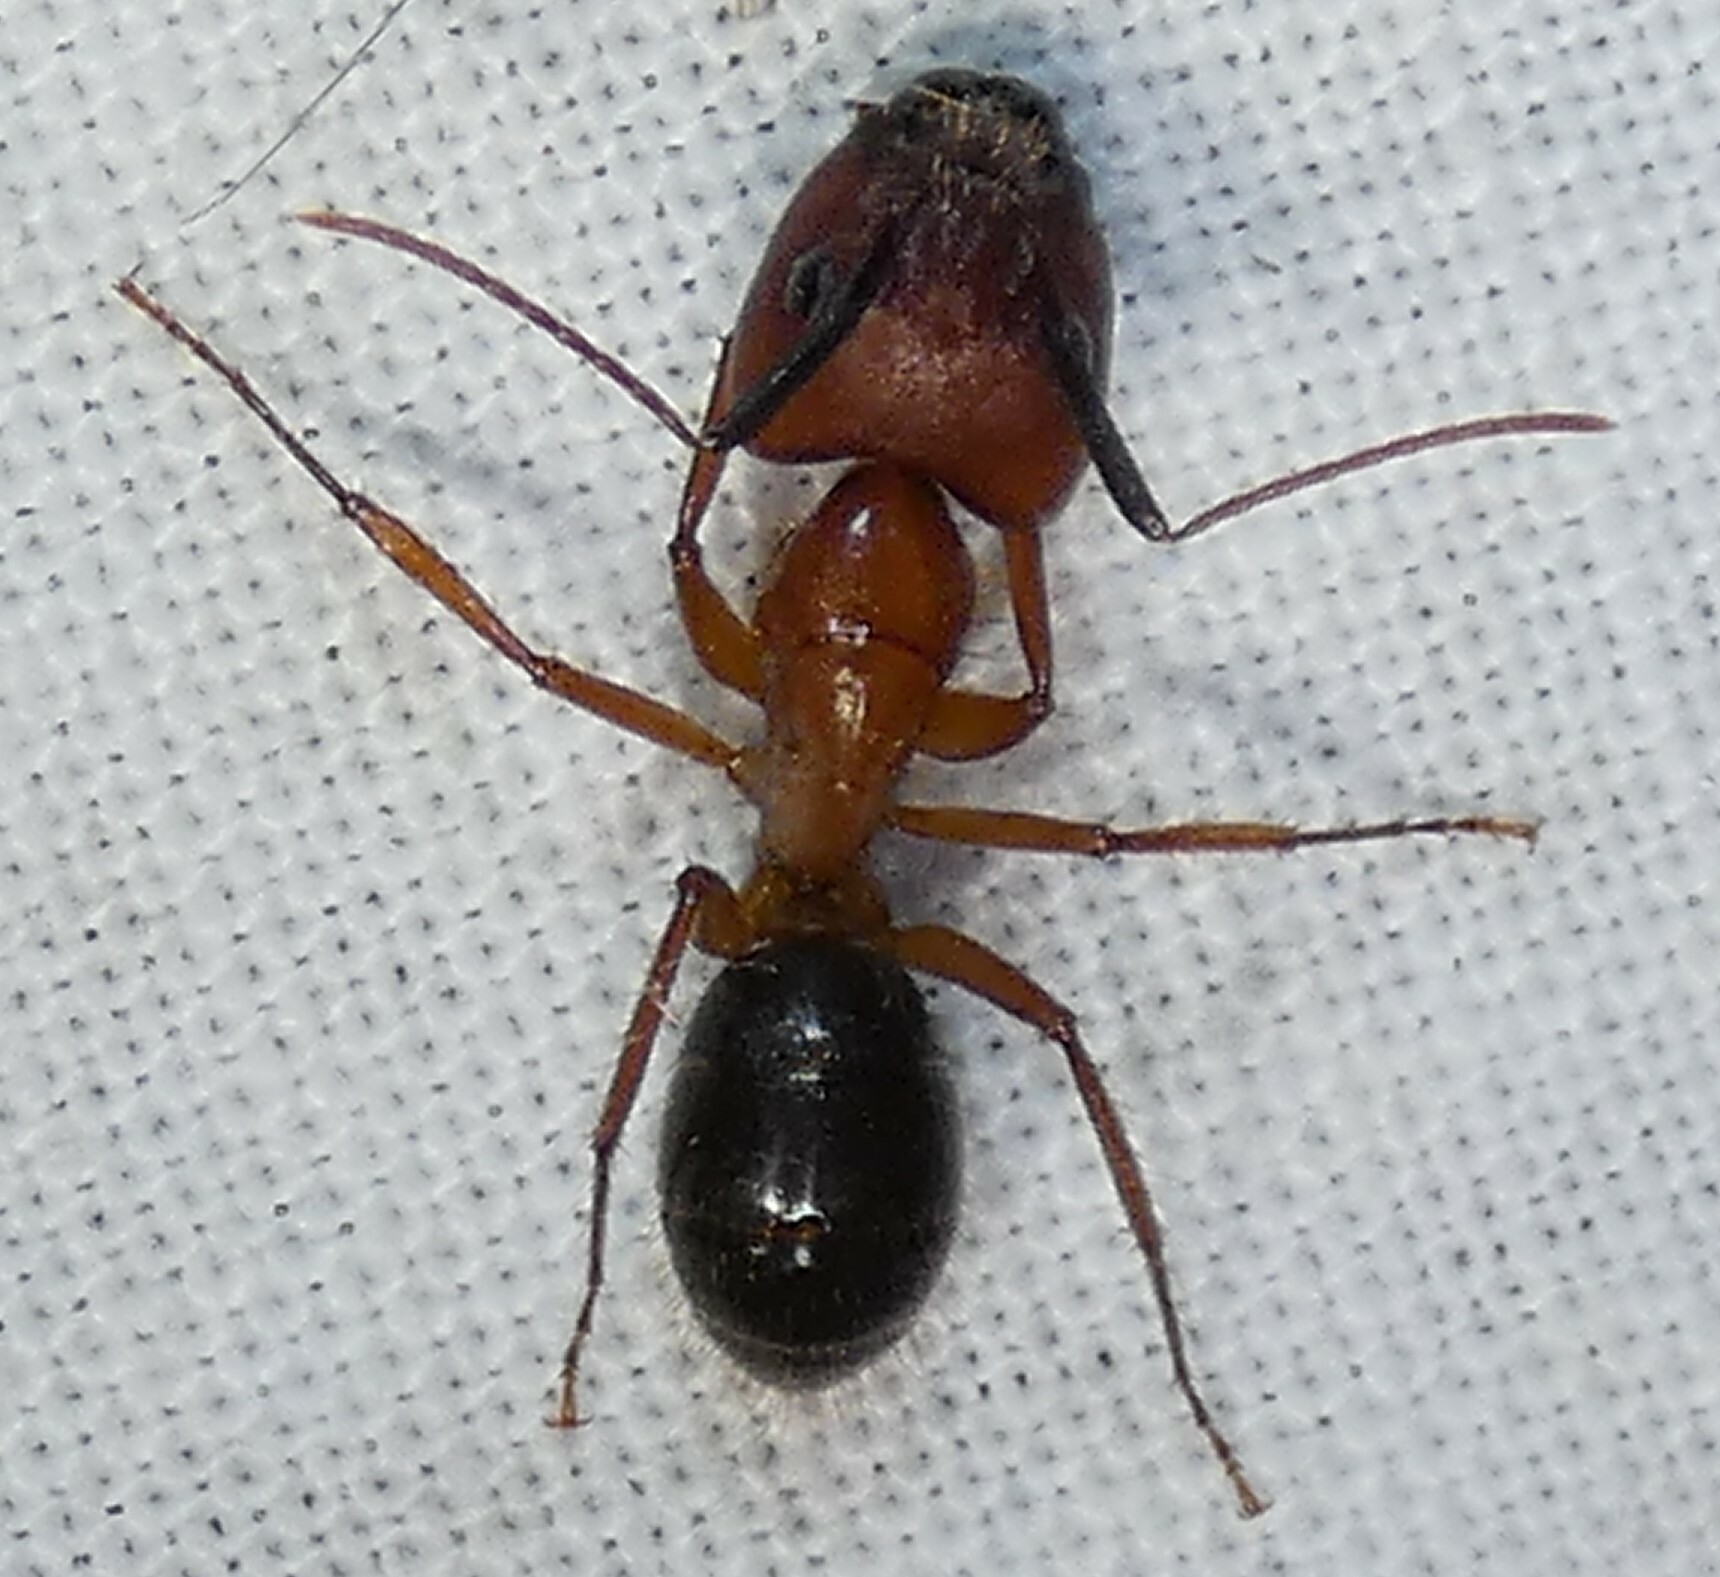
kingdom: Animalia
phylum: Arthropoda
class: Insecta
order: Hymenoptera
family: Formicidae
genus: Camponotus
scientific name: Camponotus floridanus
